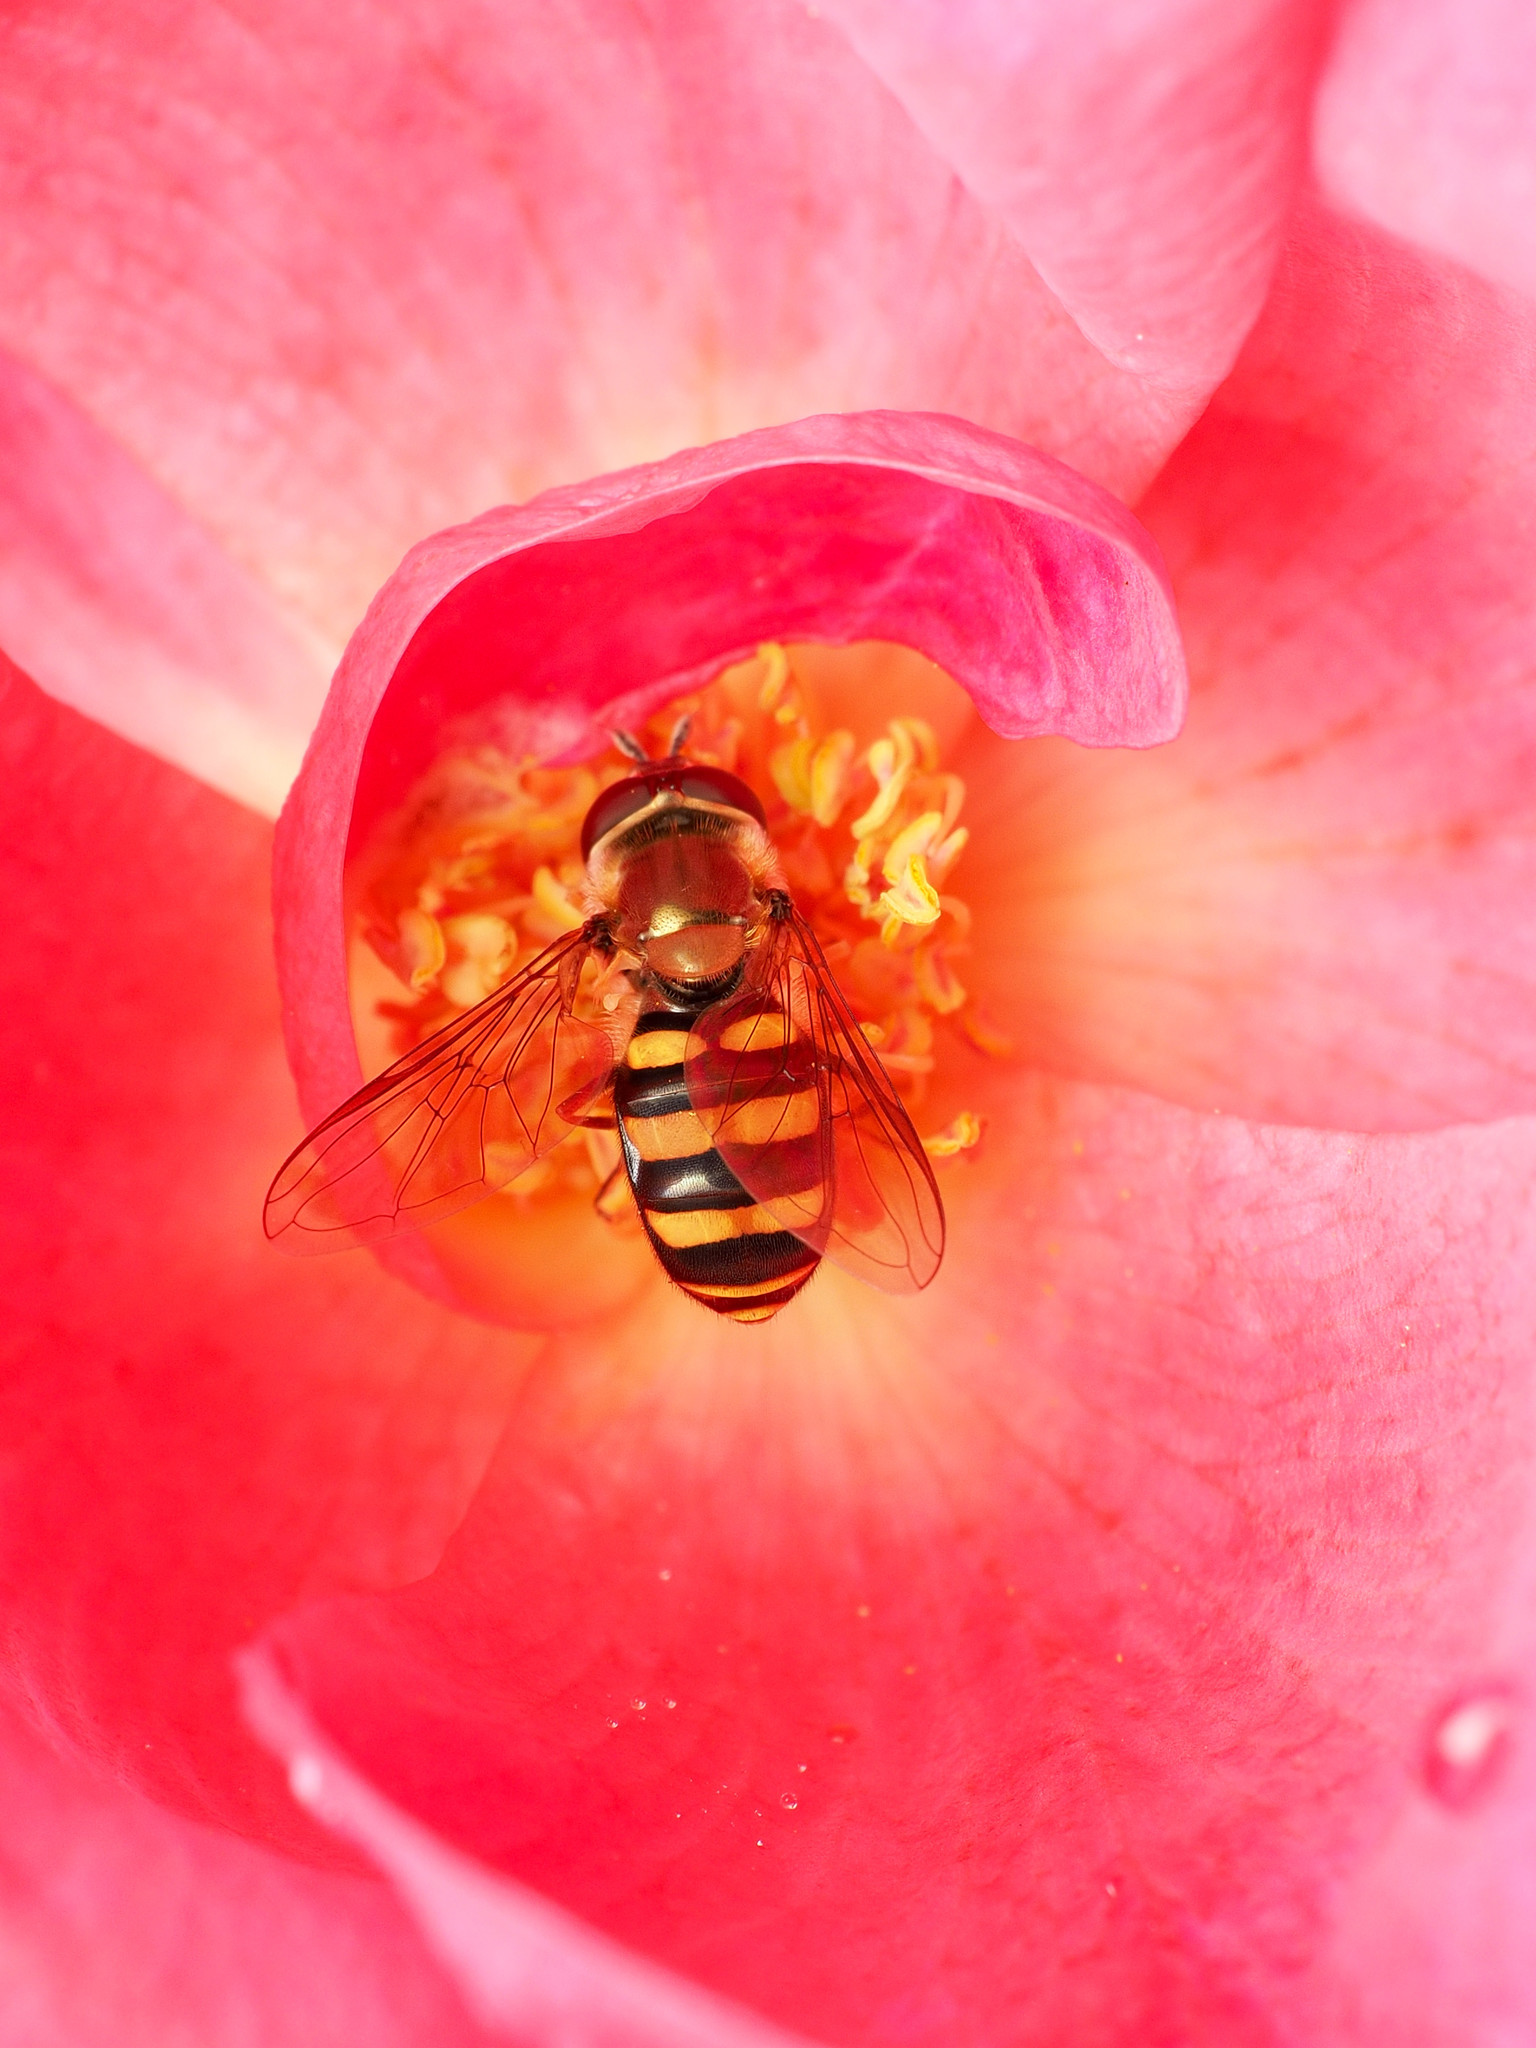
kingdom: Animalia
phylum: Arthropoda
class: Insecta
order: Diptera
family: Syrphidae
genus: Eupeodes
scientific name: Eupeodes
